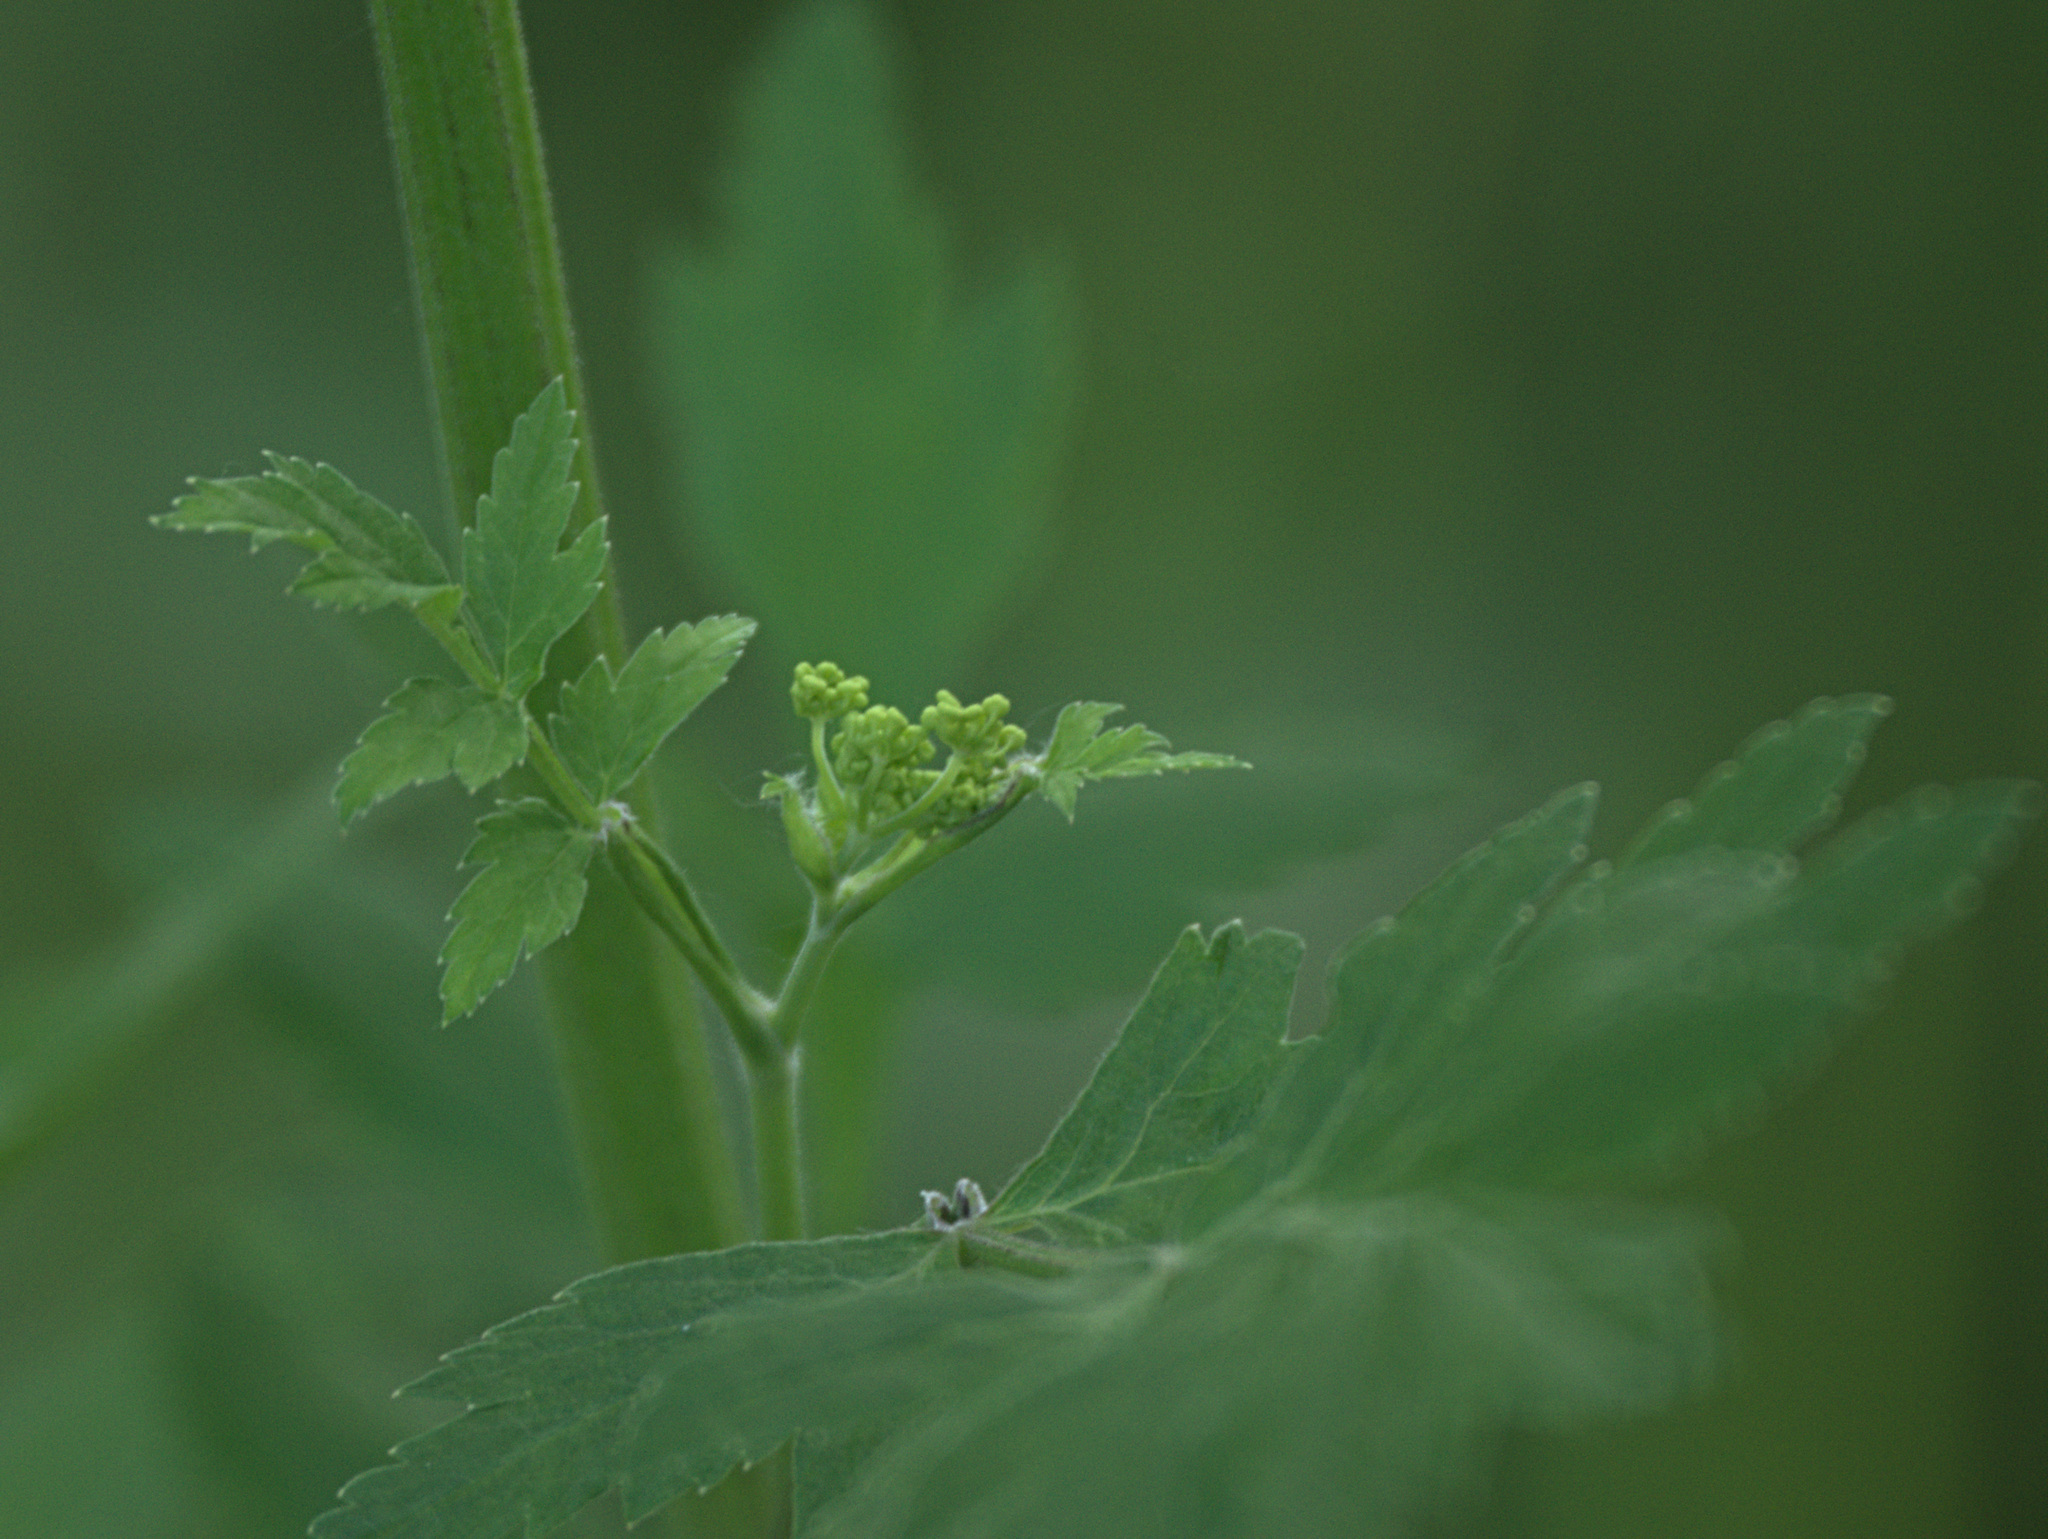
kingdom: Plantae
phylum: Tracheophyta
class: Magnoliopsida
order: Apiales
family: Apiaceae
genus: Pastinaca
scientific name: Pastinaca sativa
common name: Wild parsnip
